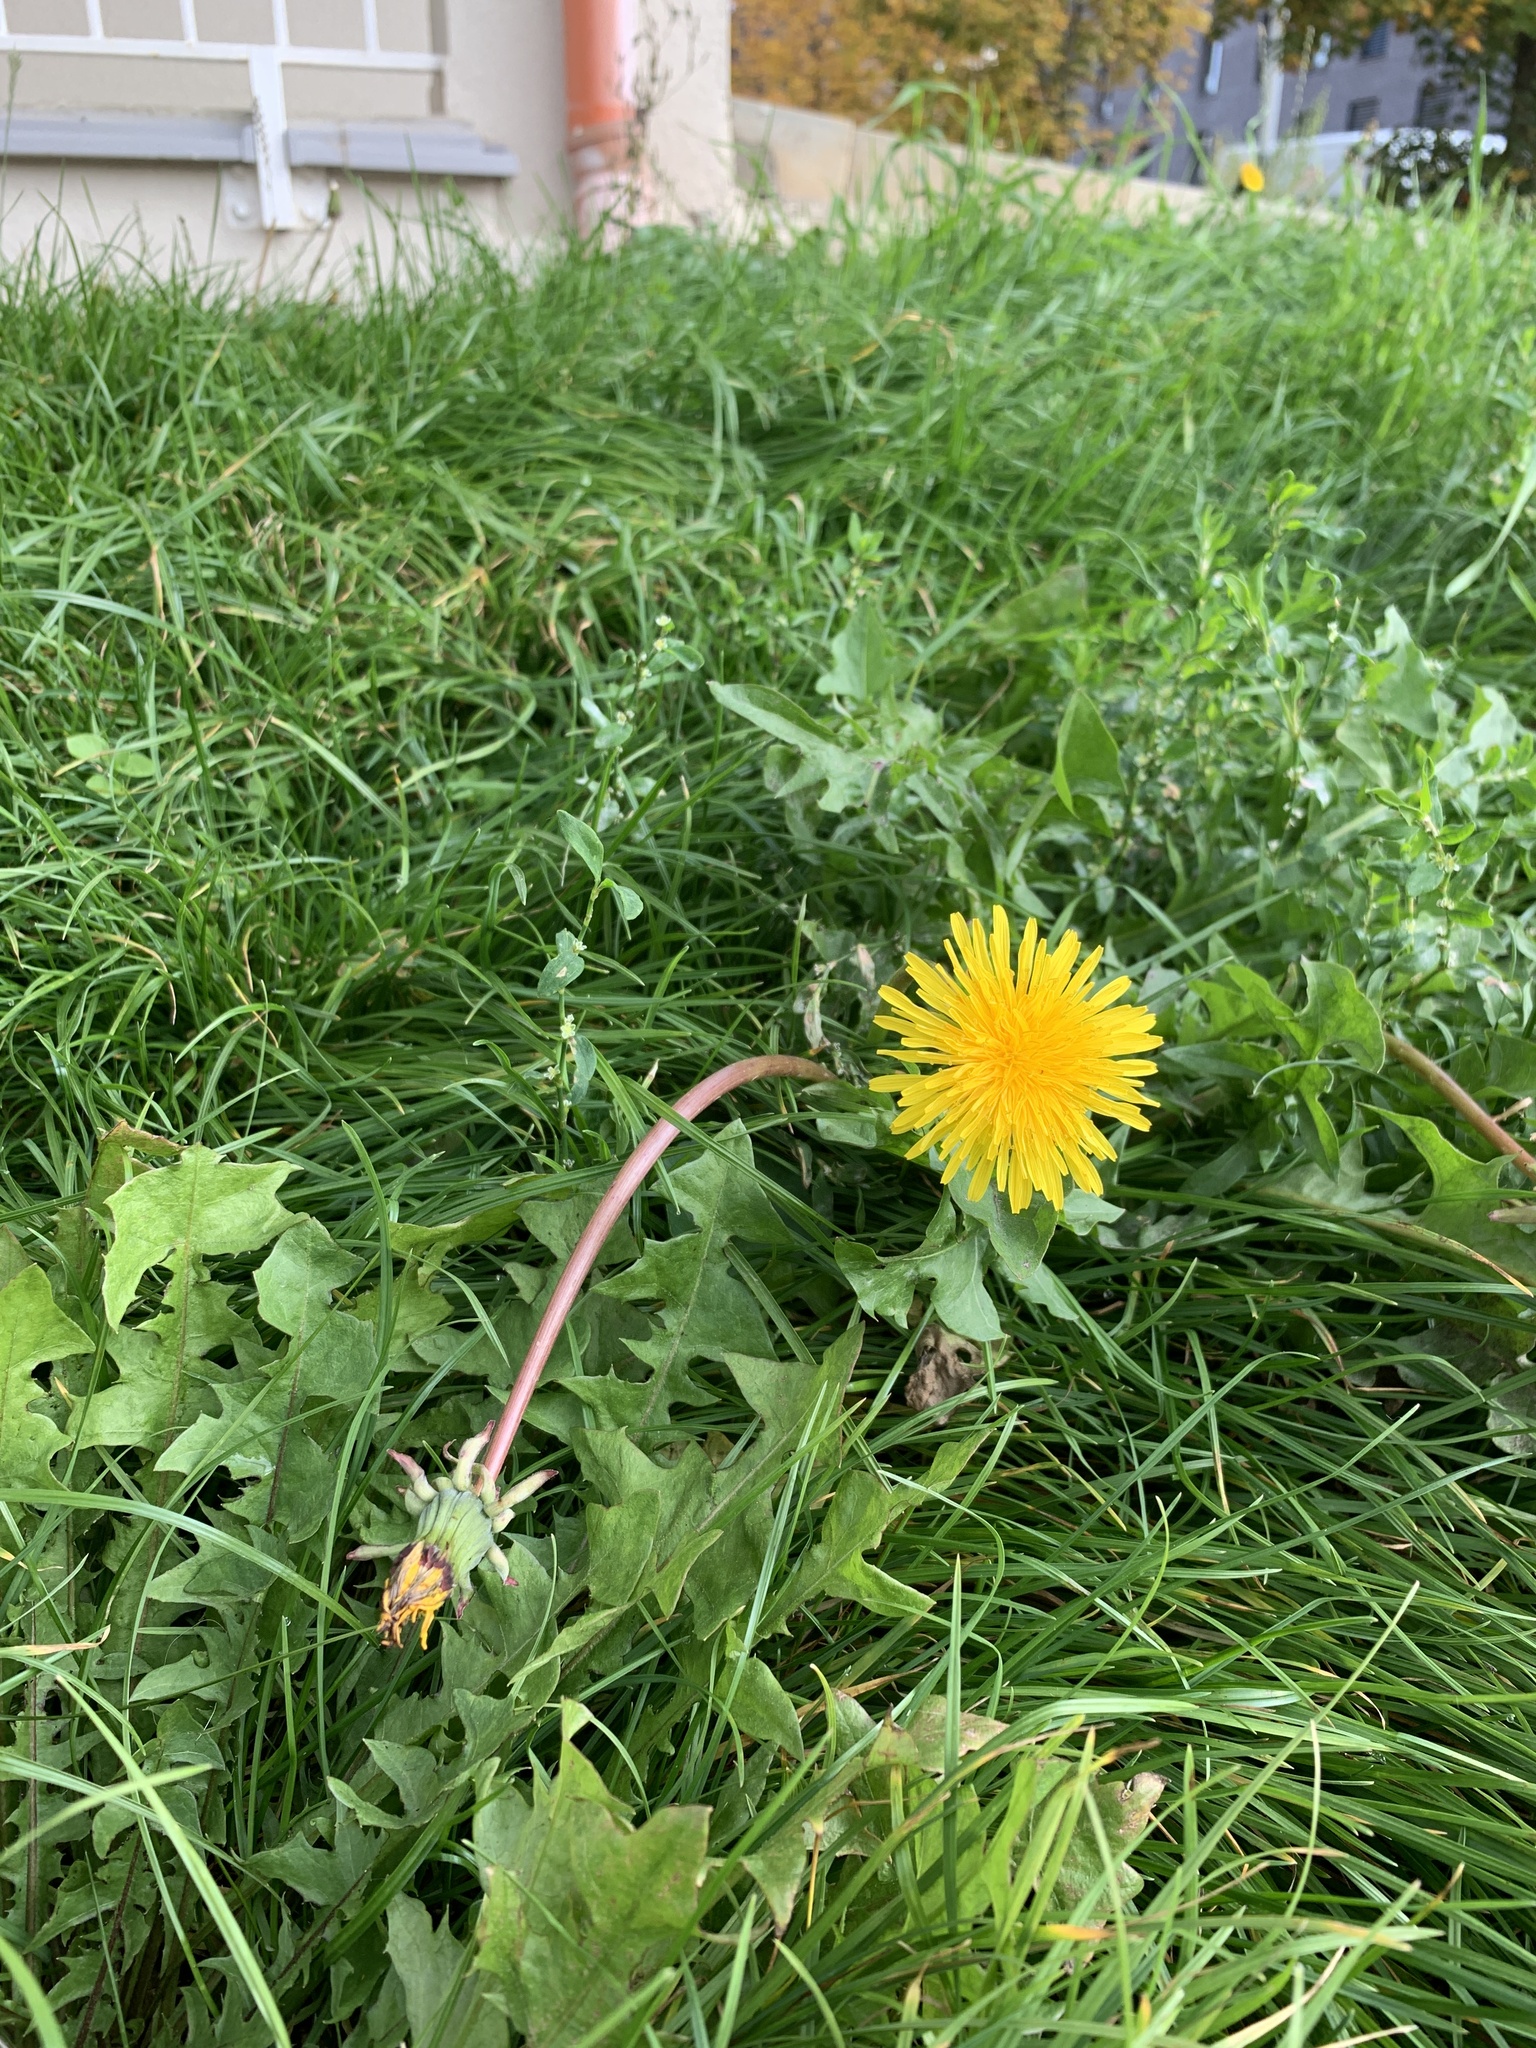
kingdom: Plantae
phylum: Tracheophyta
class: Magnoliopsida
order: Asterales
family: Asteraceae
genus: Taraxacum
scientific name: Taraxacum officinale
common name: Common dandelion
